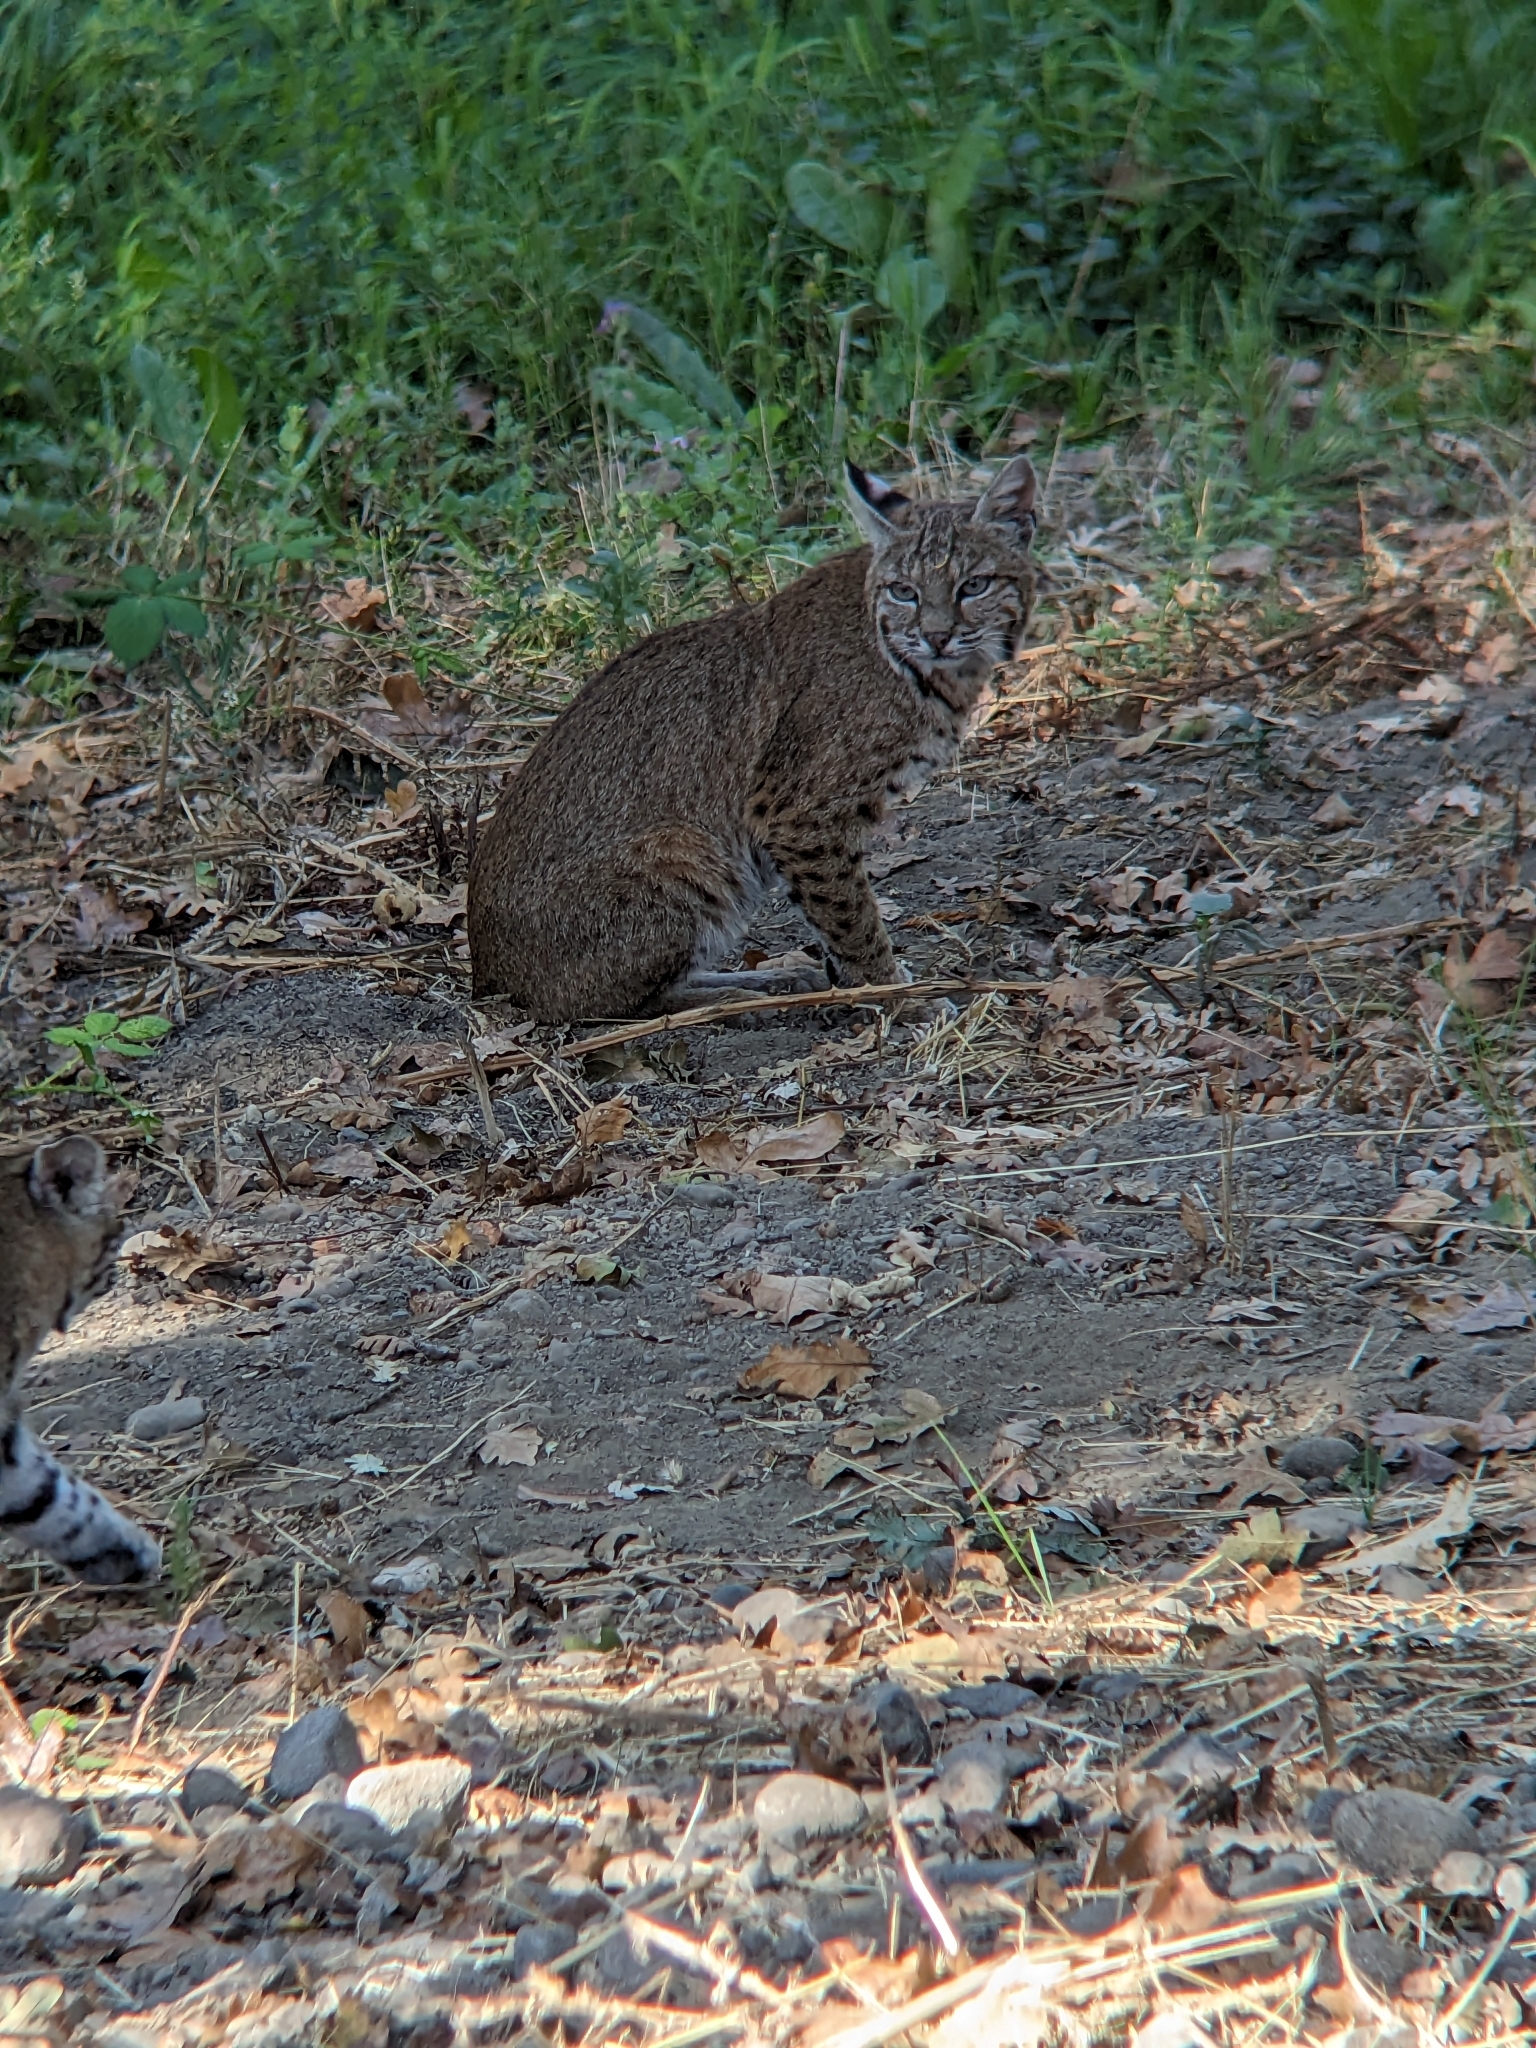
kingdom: Animalia
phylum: Chordata
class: Mammalia
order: Carnivora
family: Felidae
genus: Lynx
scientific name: Lynx rufus
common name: Bobcat
